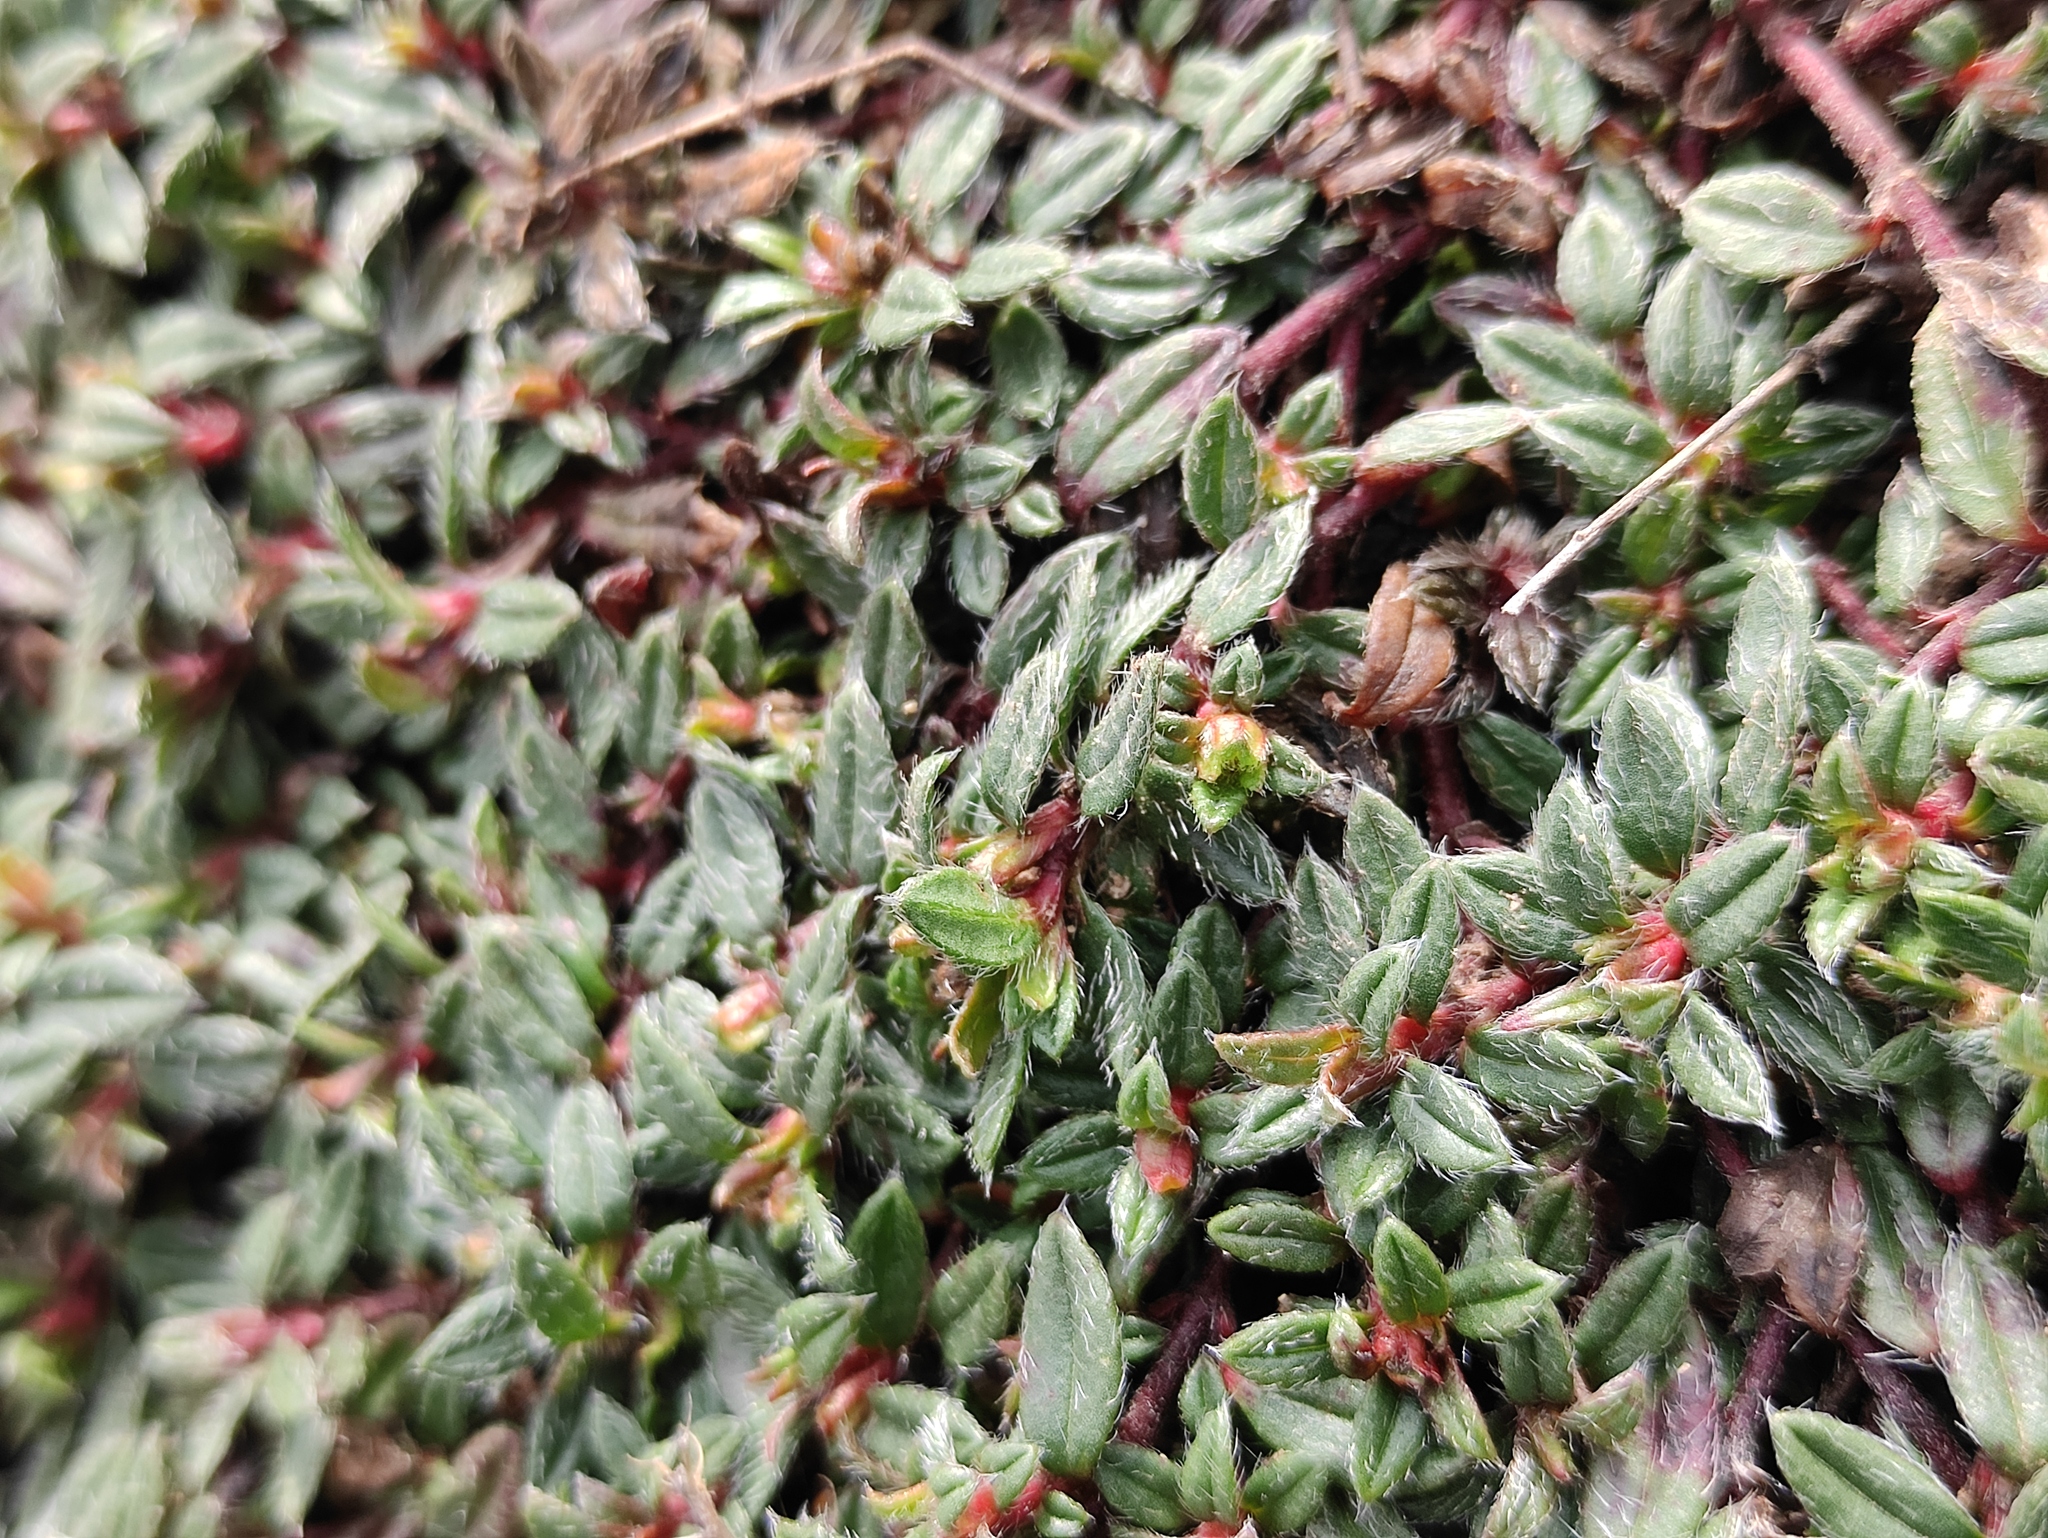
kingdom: Plantae
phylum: Tracheophyta
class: Magnoliopsida
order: Malvales
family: Cistaceae
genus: Helianthemum
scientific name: Helianthemum oelandicum
